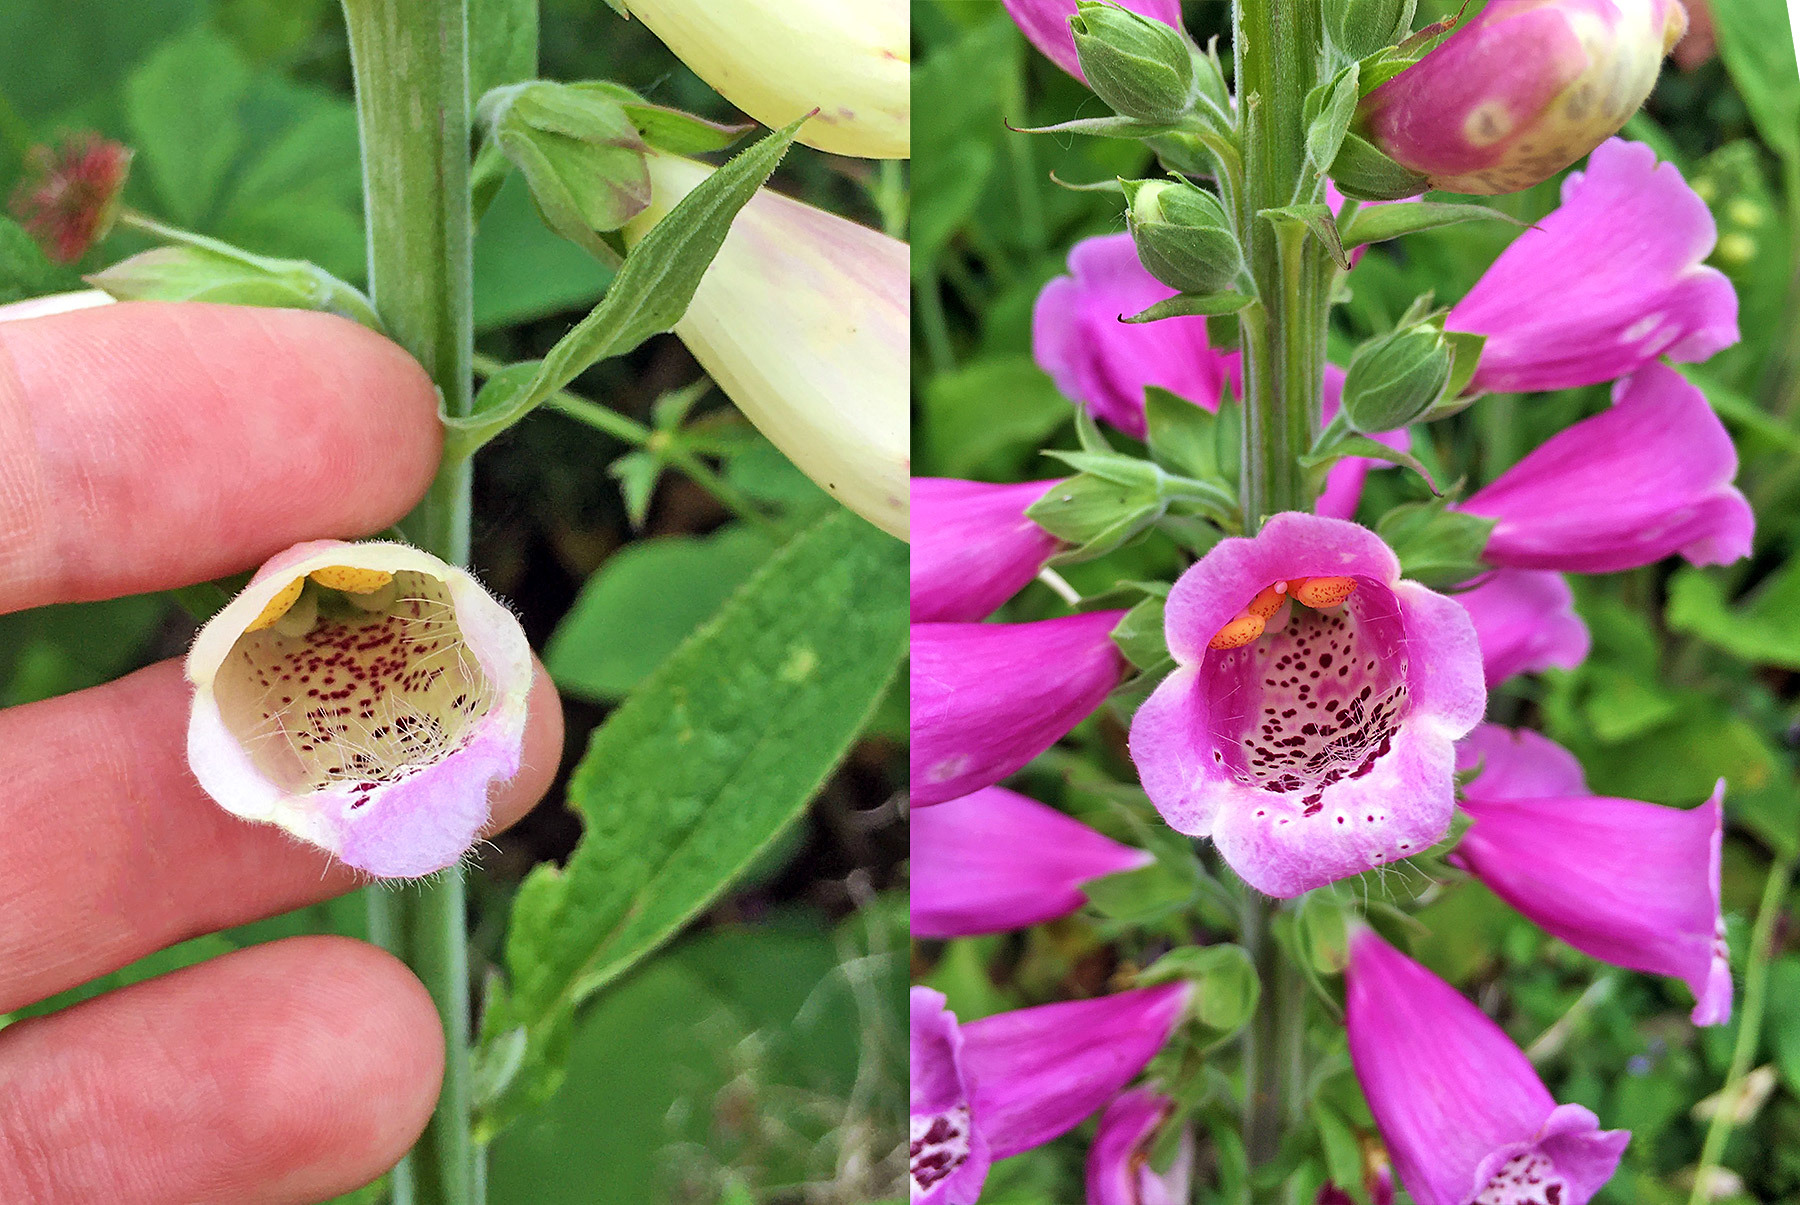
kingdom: Plantae
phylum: Tracheophyta
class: Magnoliopsida
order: Lamiales
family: Plantaginaceae
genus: Digitalis
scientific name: Digitalis purpurea
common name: Foxglove
